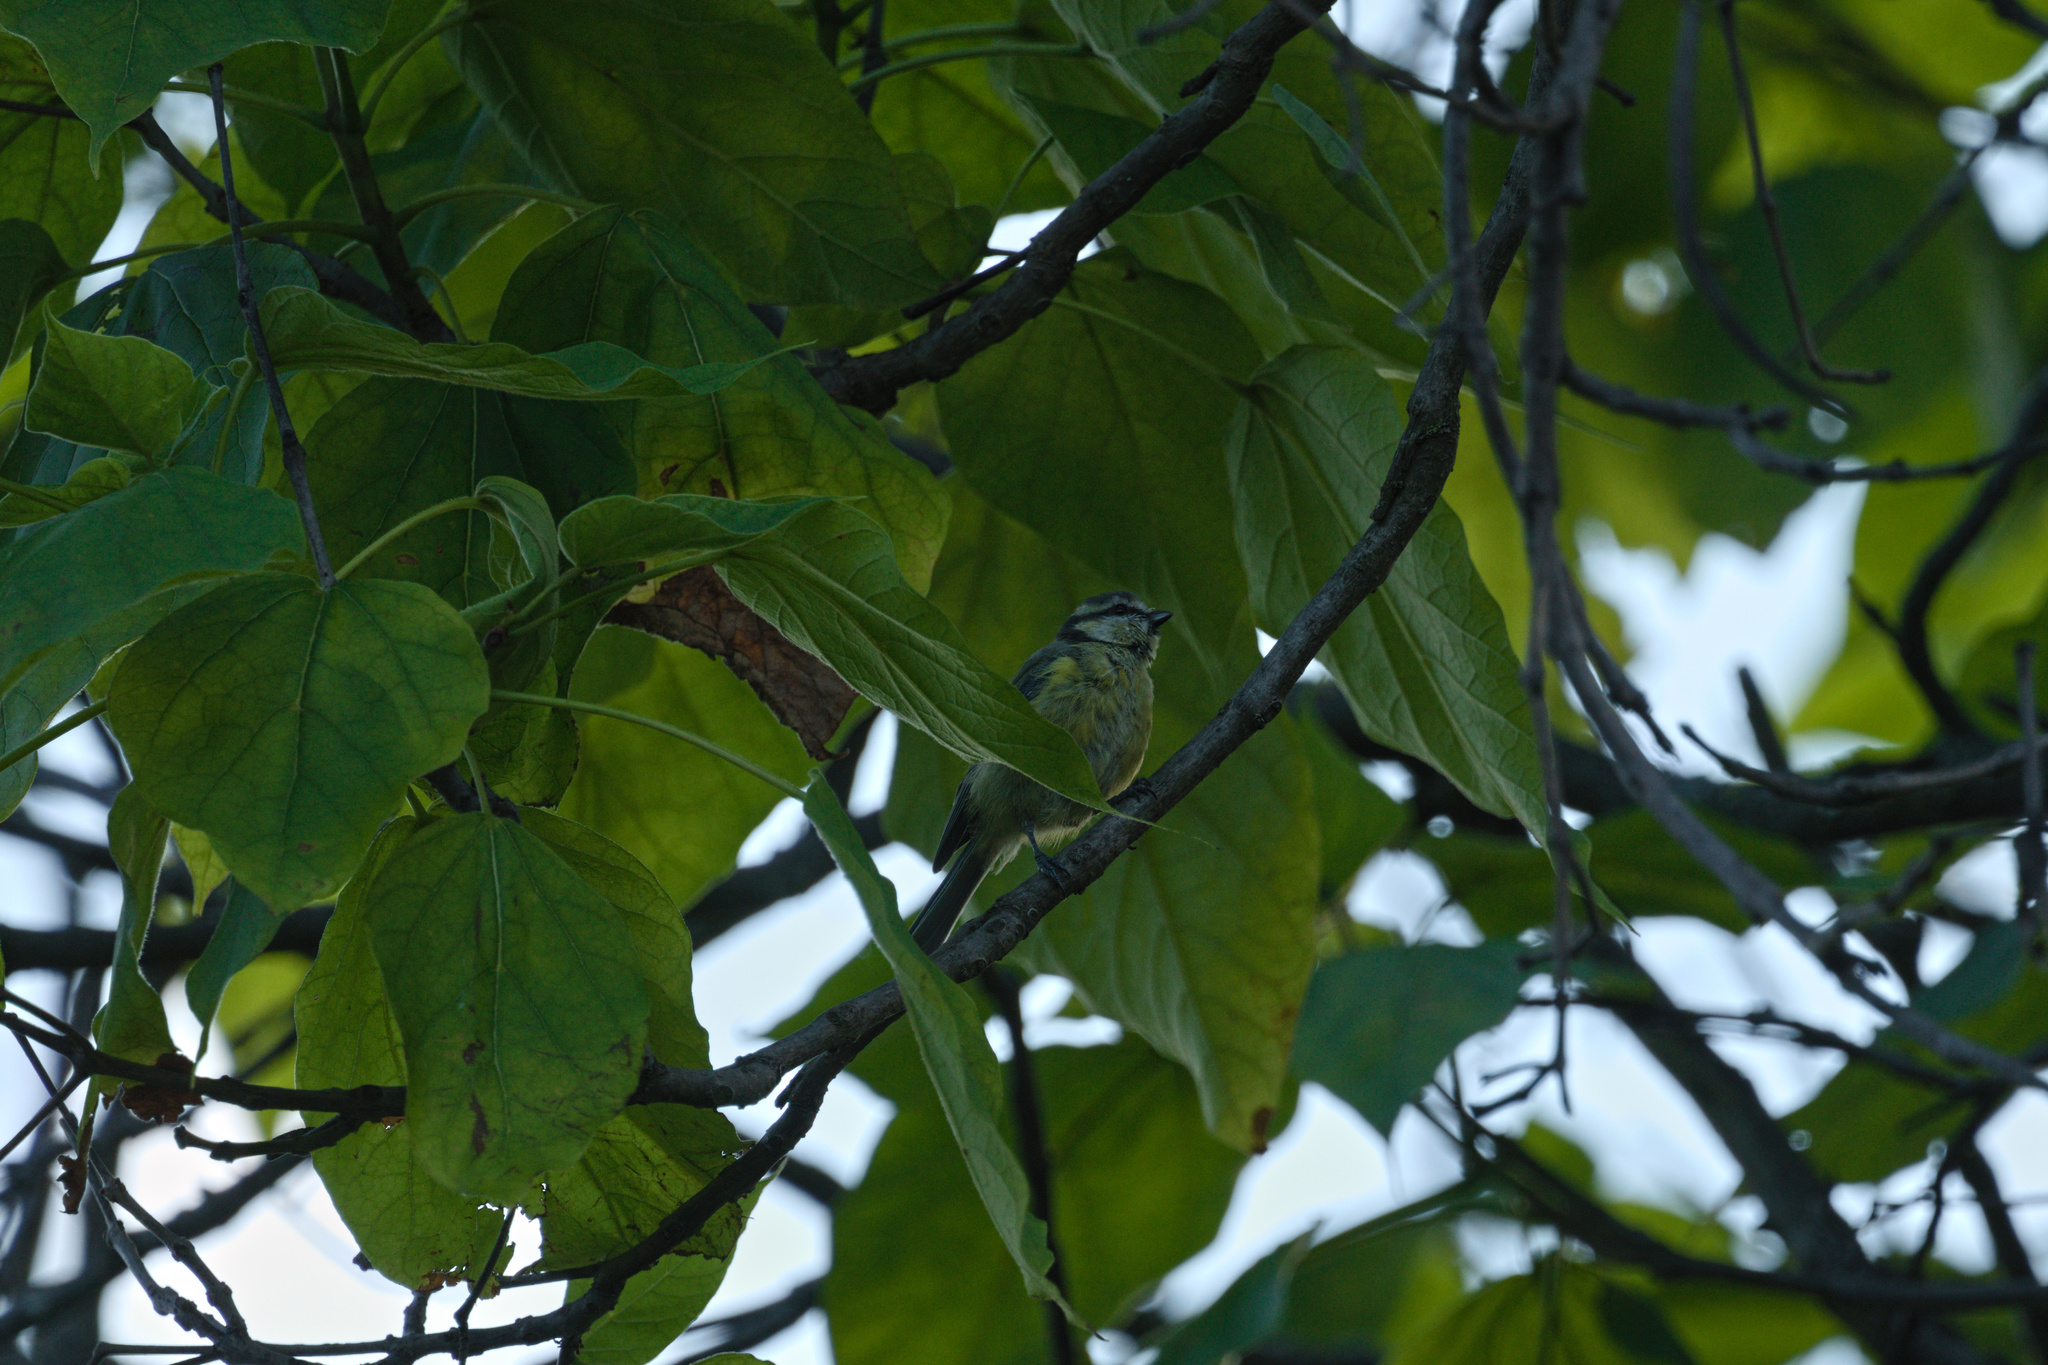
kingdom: Animalia
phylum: Chordata
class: Aves
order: Passeriformes
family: Paridae
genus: Cyanistes
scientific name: Cyanistes caeruleus
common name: Eurasian blue tit
